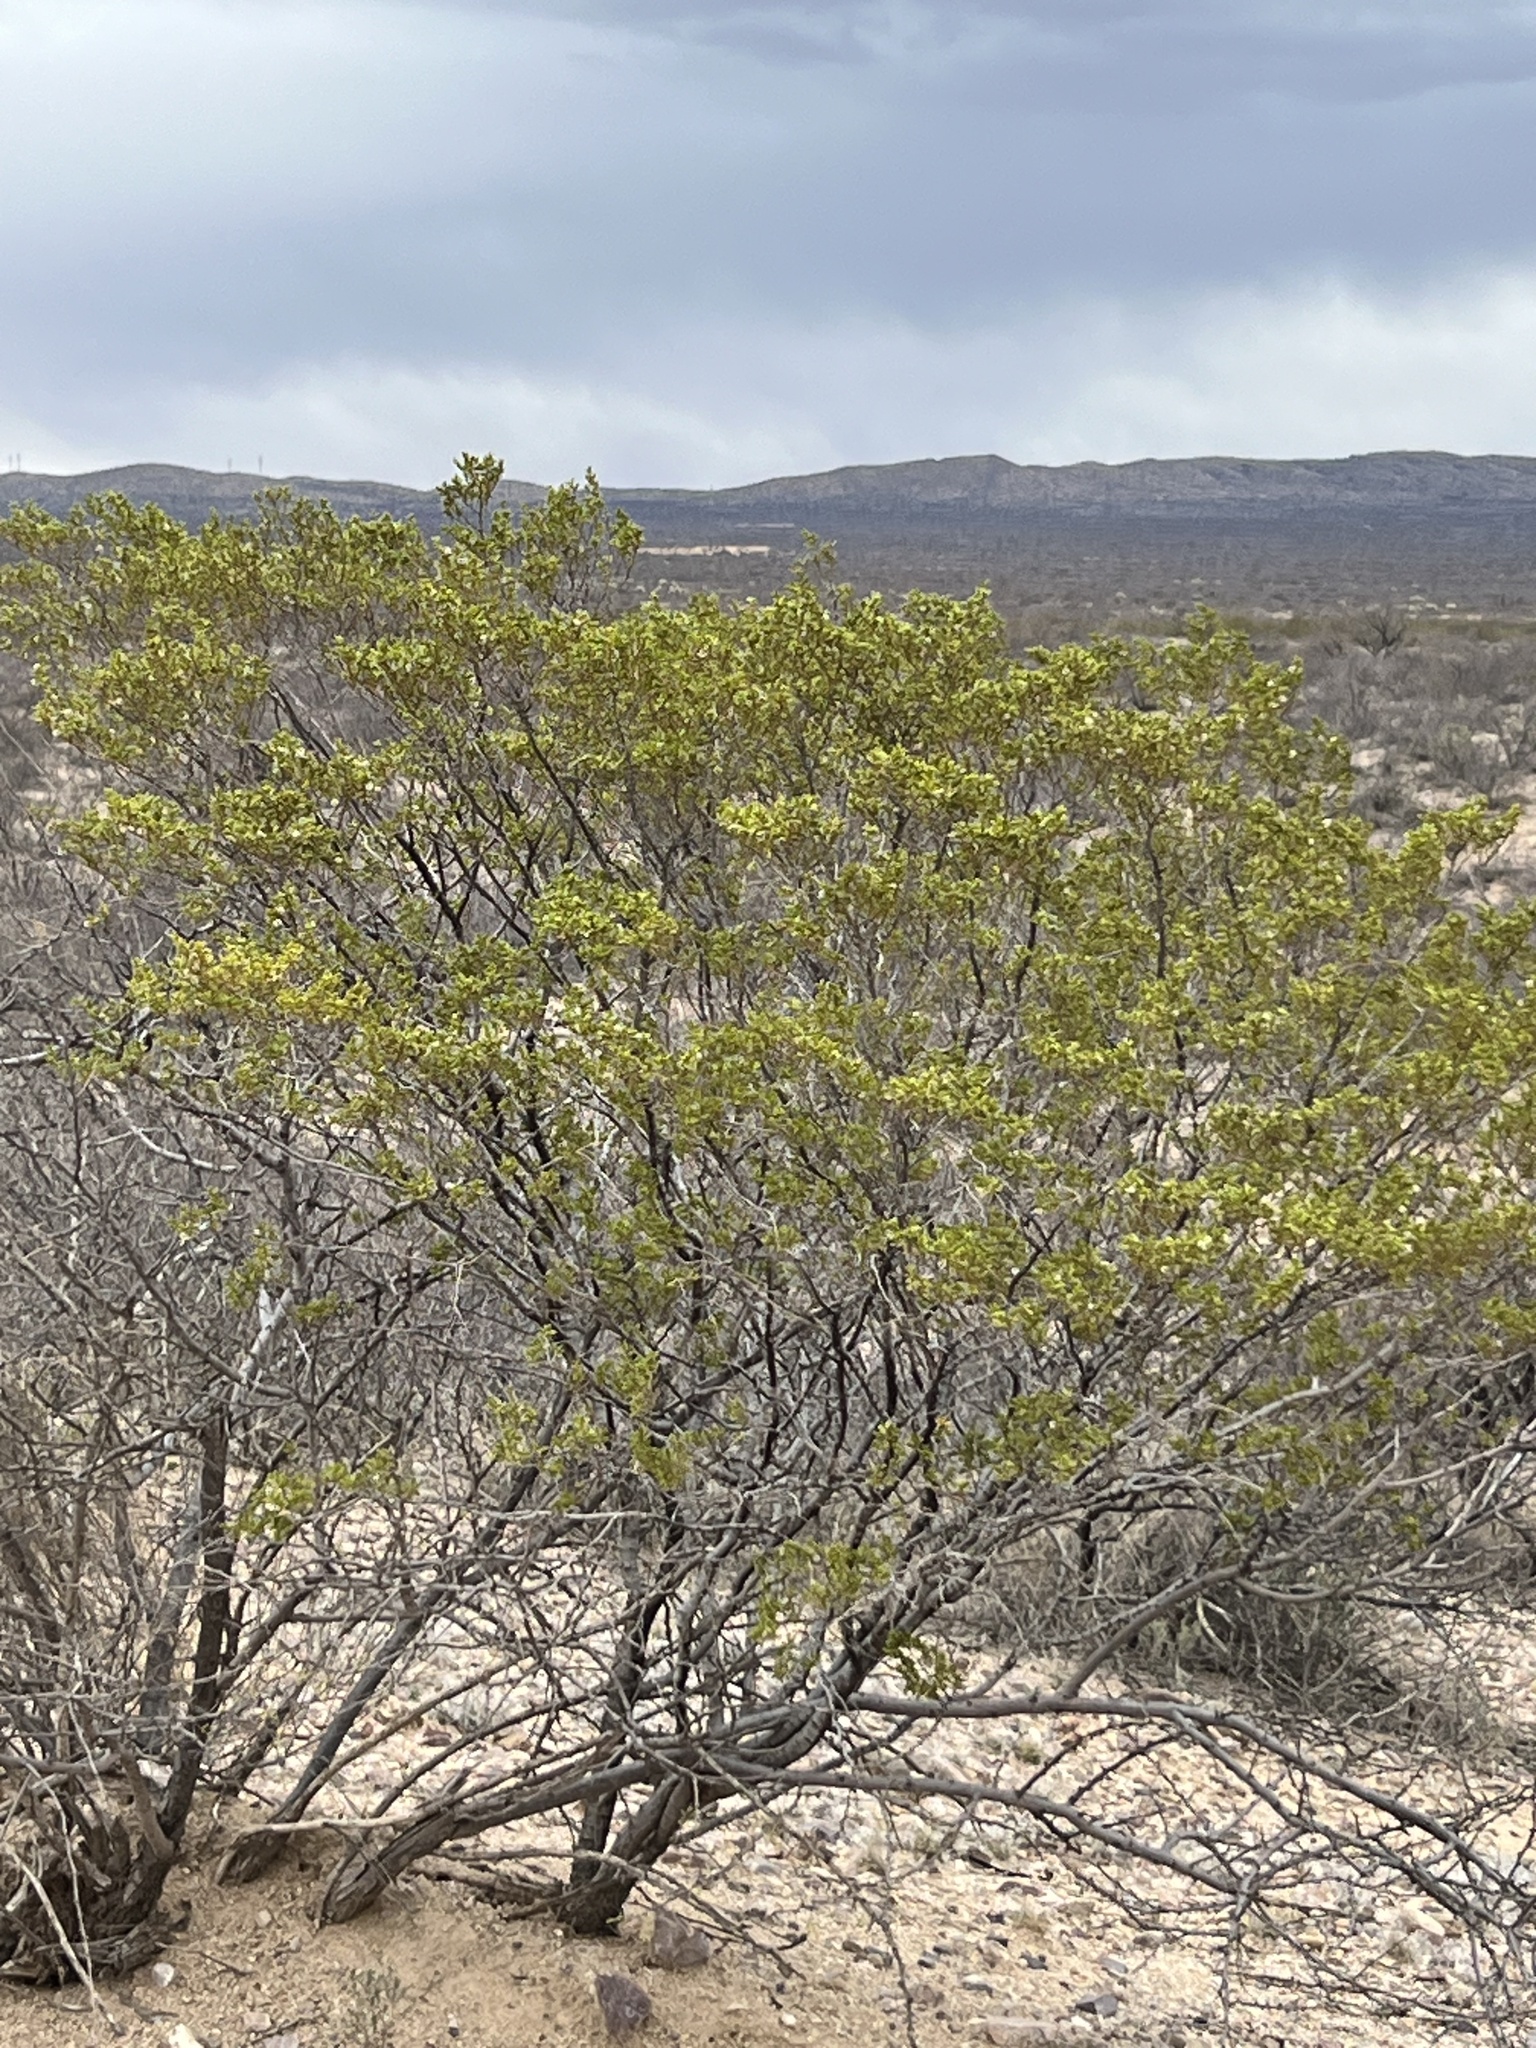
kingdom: Plantae
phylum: Tracheophyta
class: Magnoliopsida
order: Zygophyllales
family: Zygophyllaceae
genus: Larrea
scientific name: Larrea tridentata
